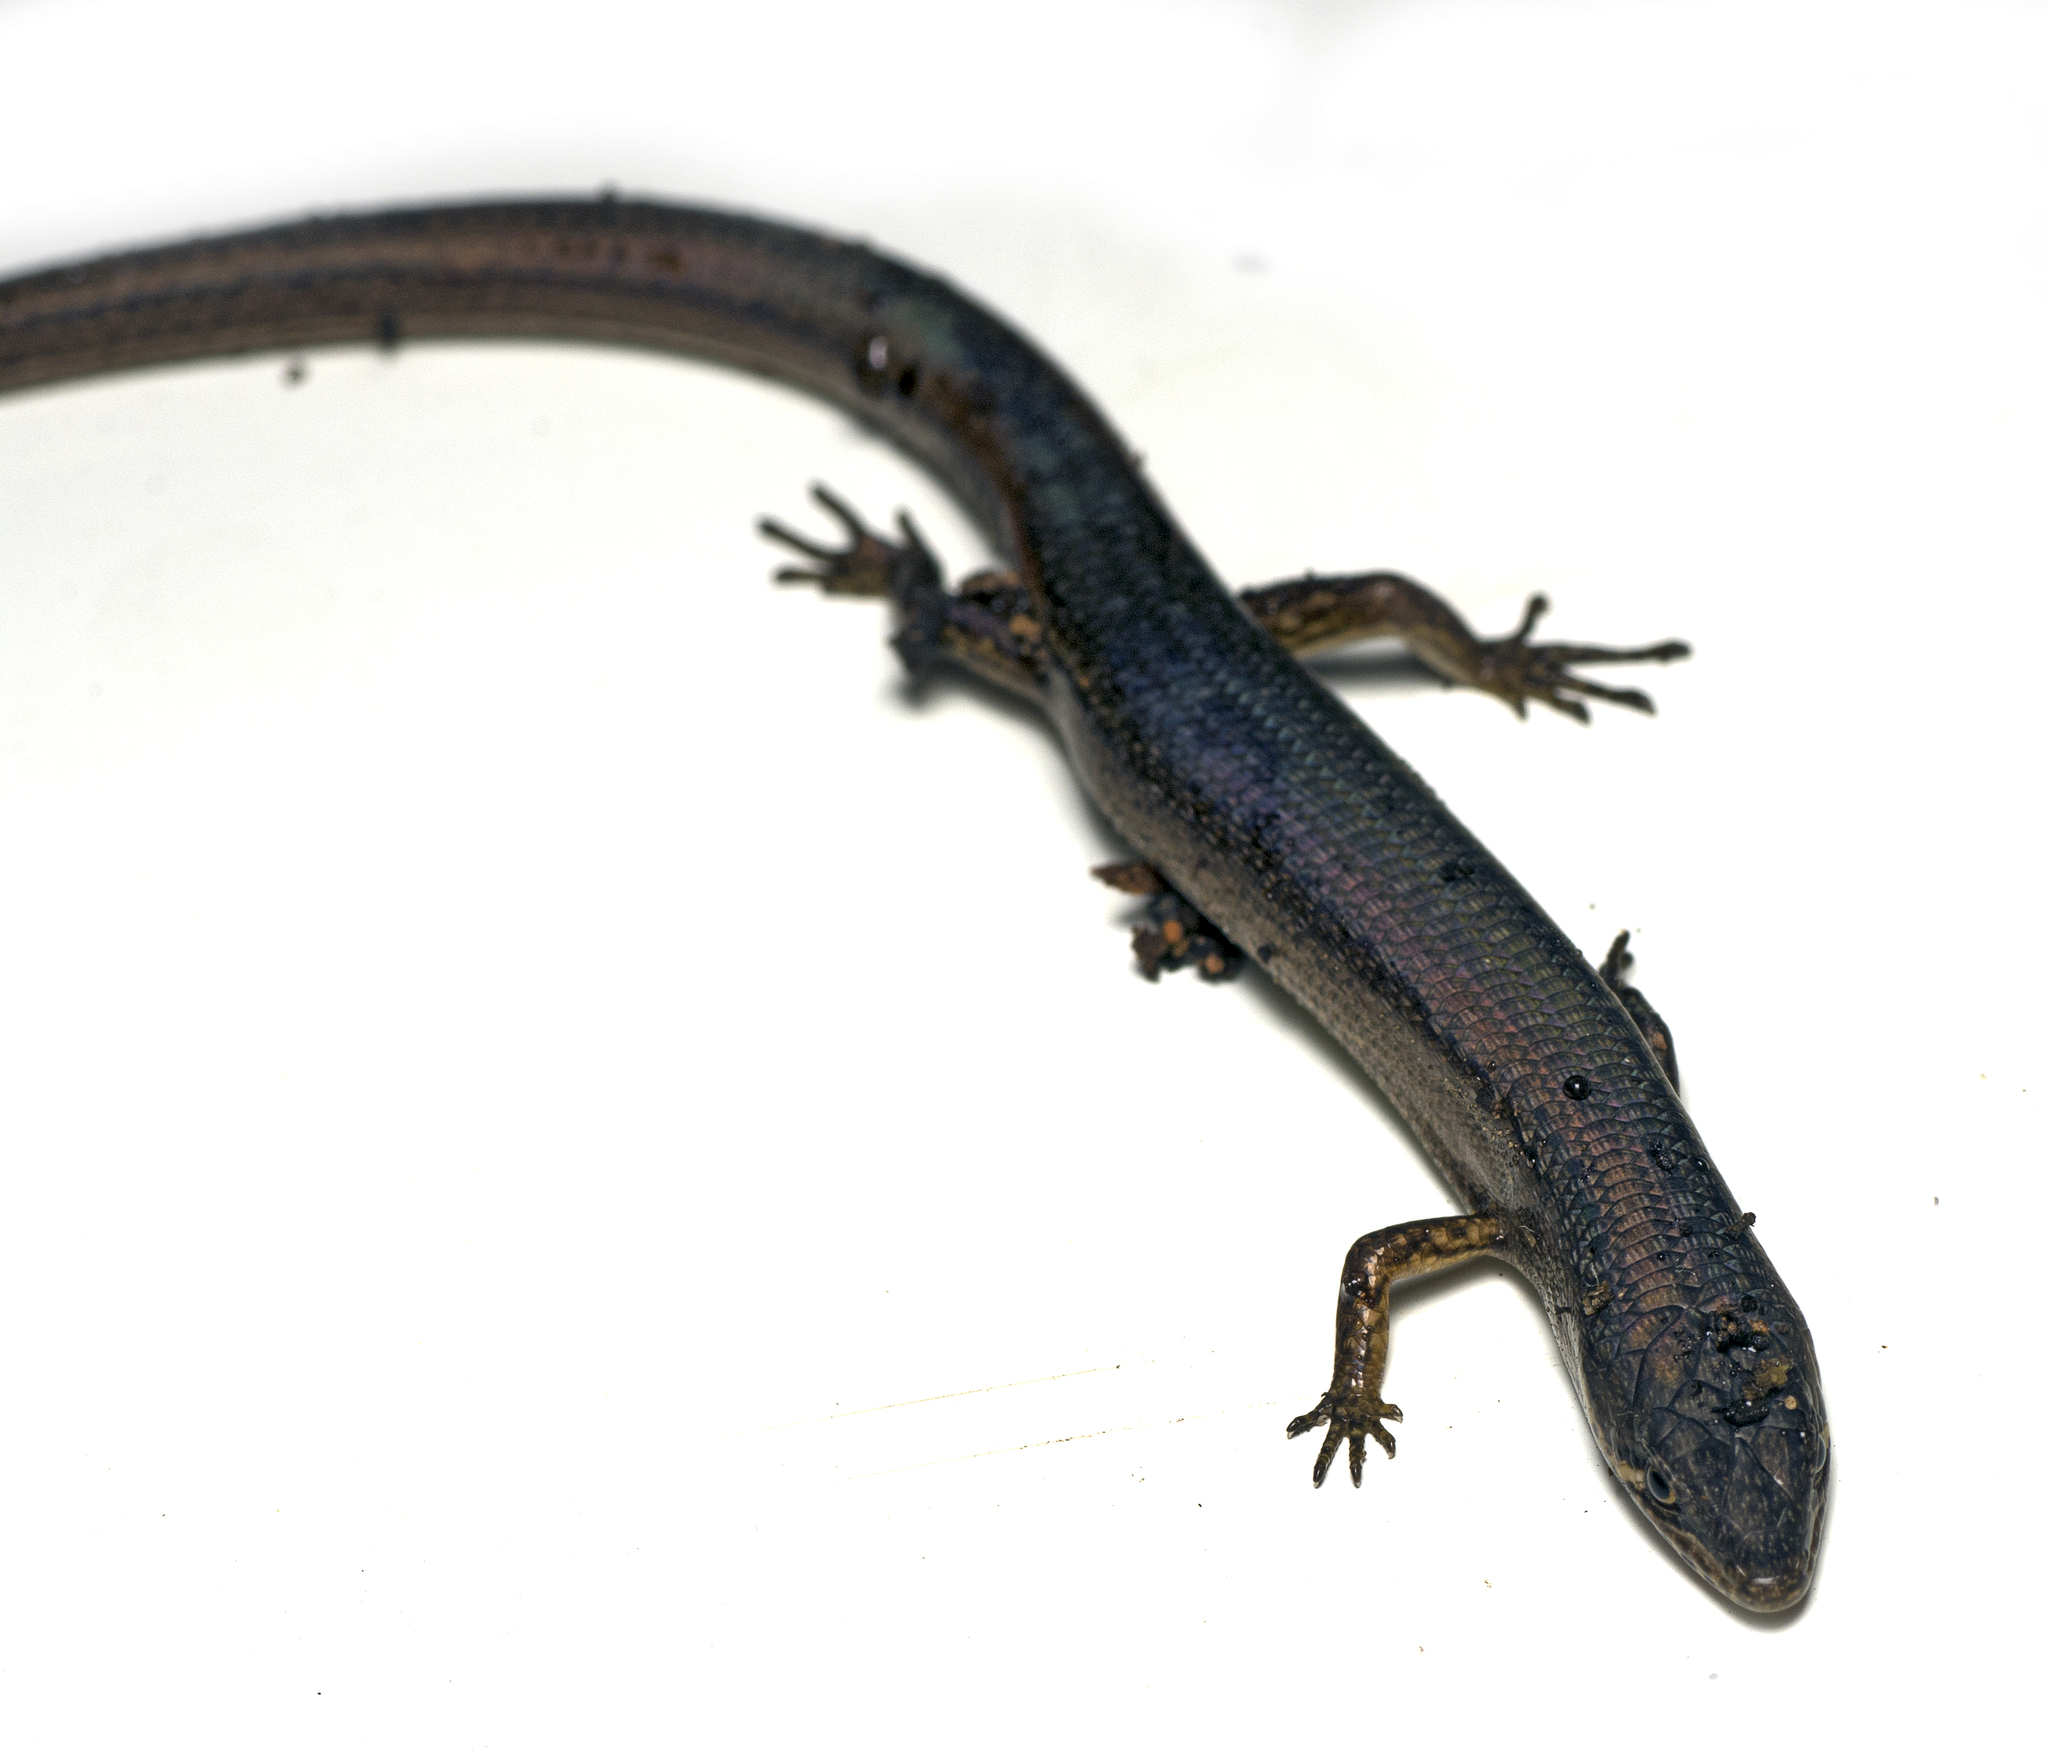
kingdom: Animalia
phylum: Chordata
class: Squamata
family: Scincidae
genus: Saproscincus
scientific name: Saproscincus mustelinus
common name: Southern weasel skink
